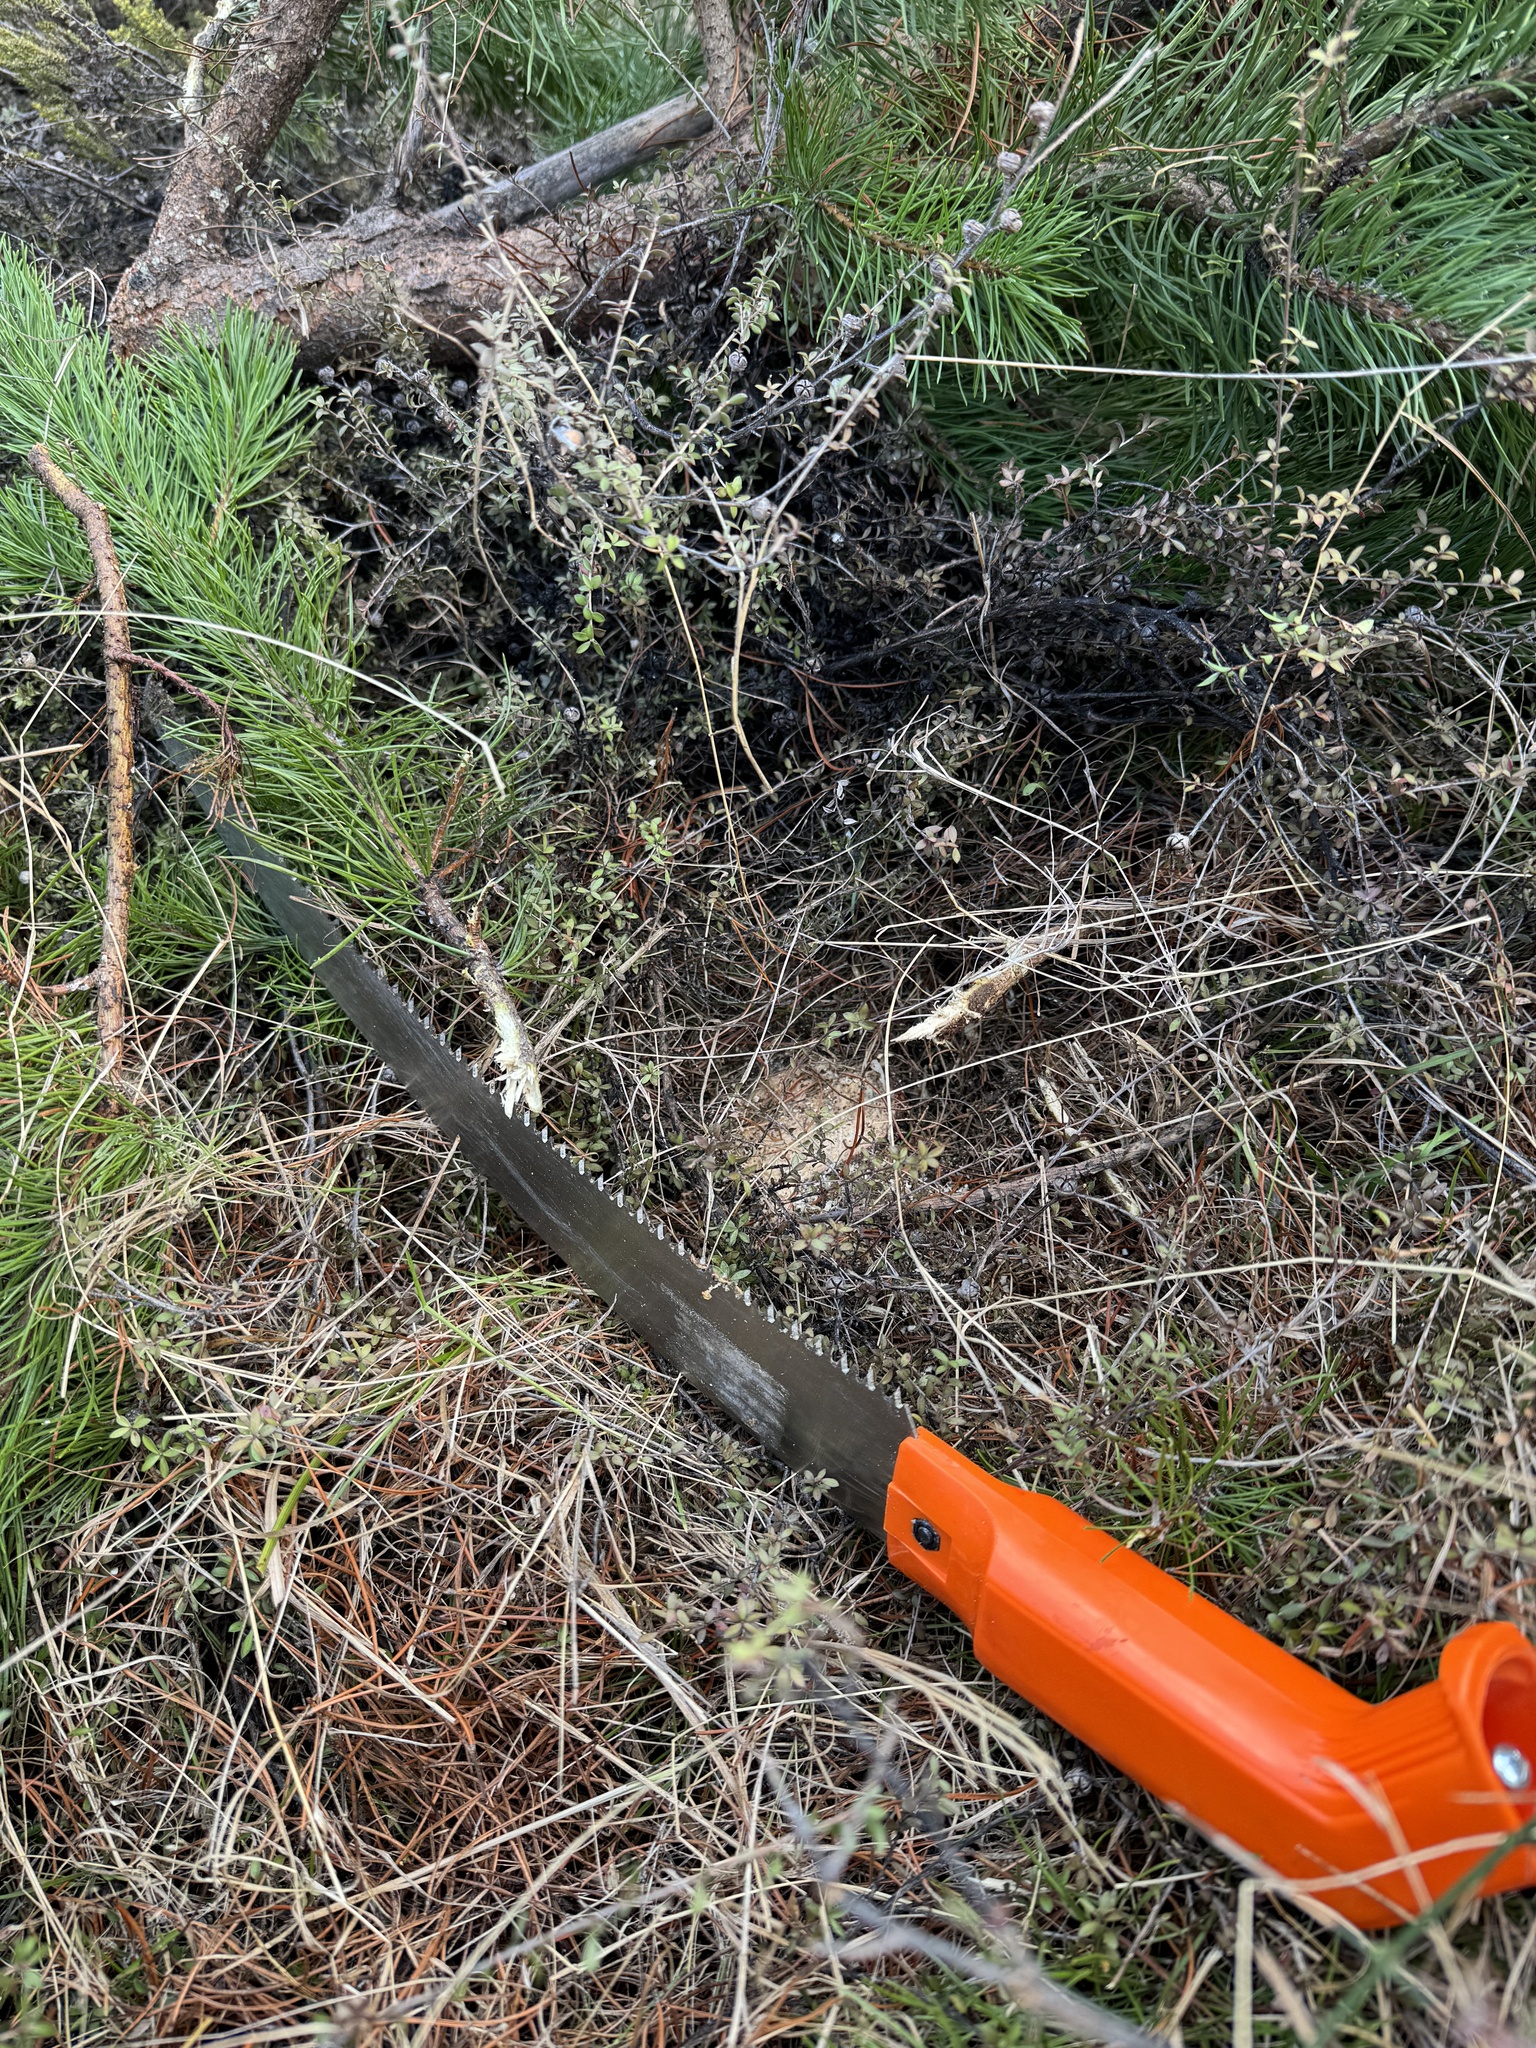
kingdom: Plantae
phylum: Tracheophyta
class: Pinopsida
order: Pinales
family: Pinaceae
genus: Pinus
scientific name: Pinus contorta
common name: Lodgepole pine
